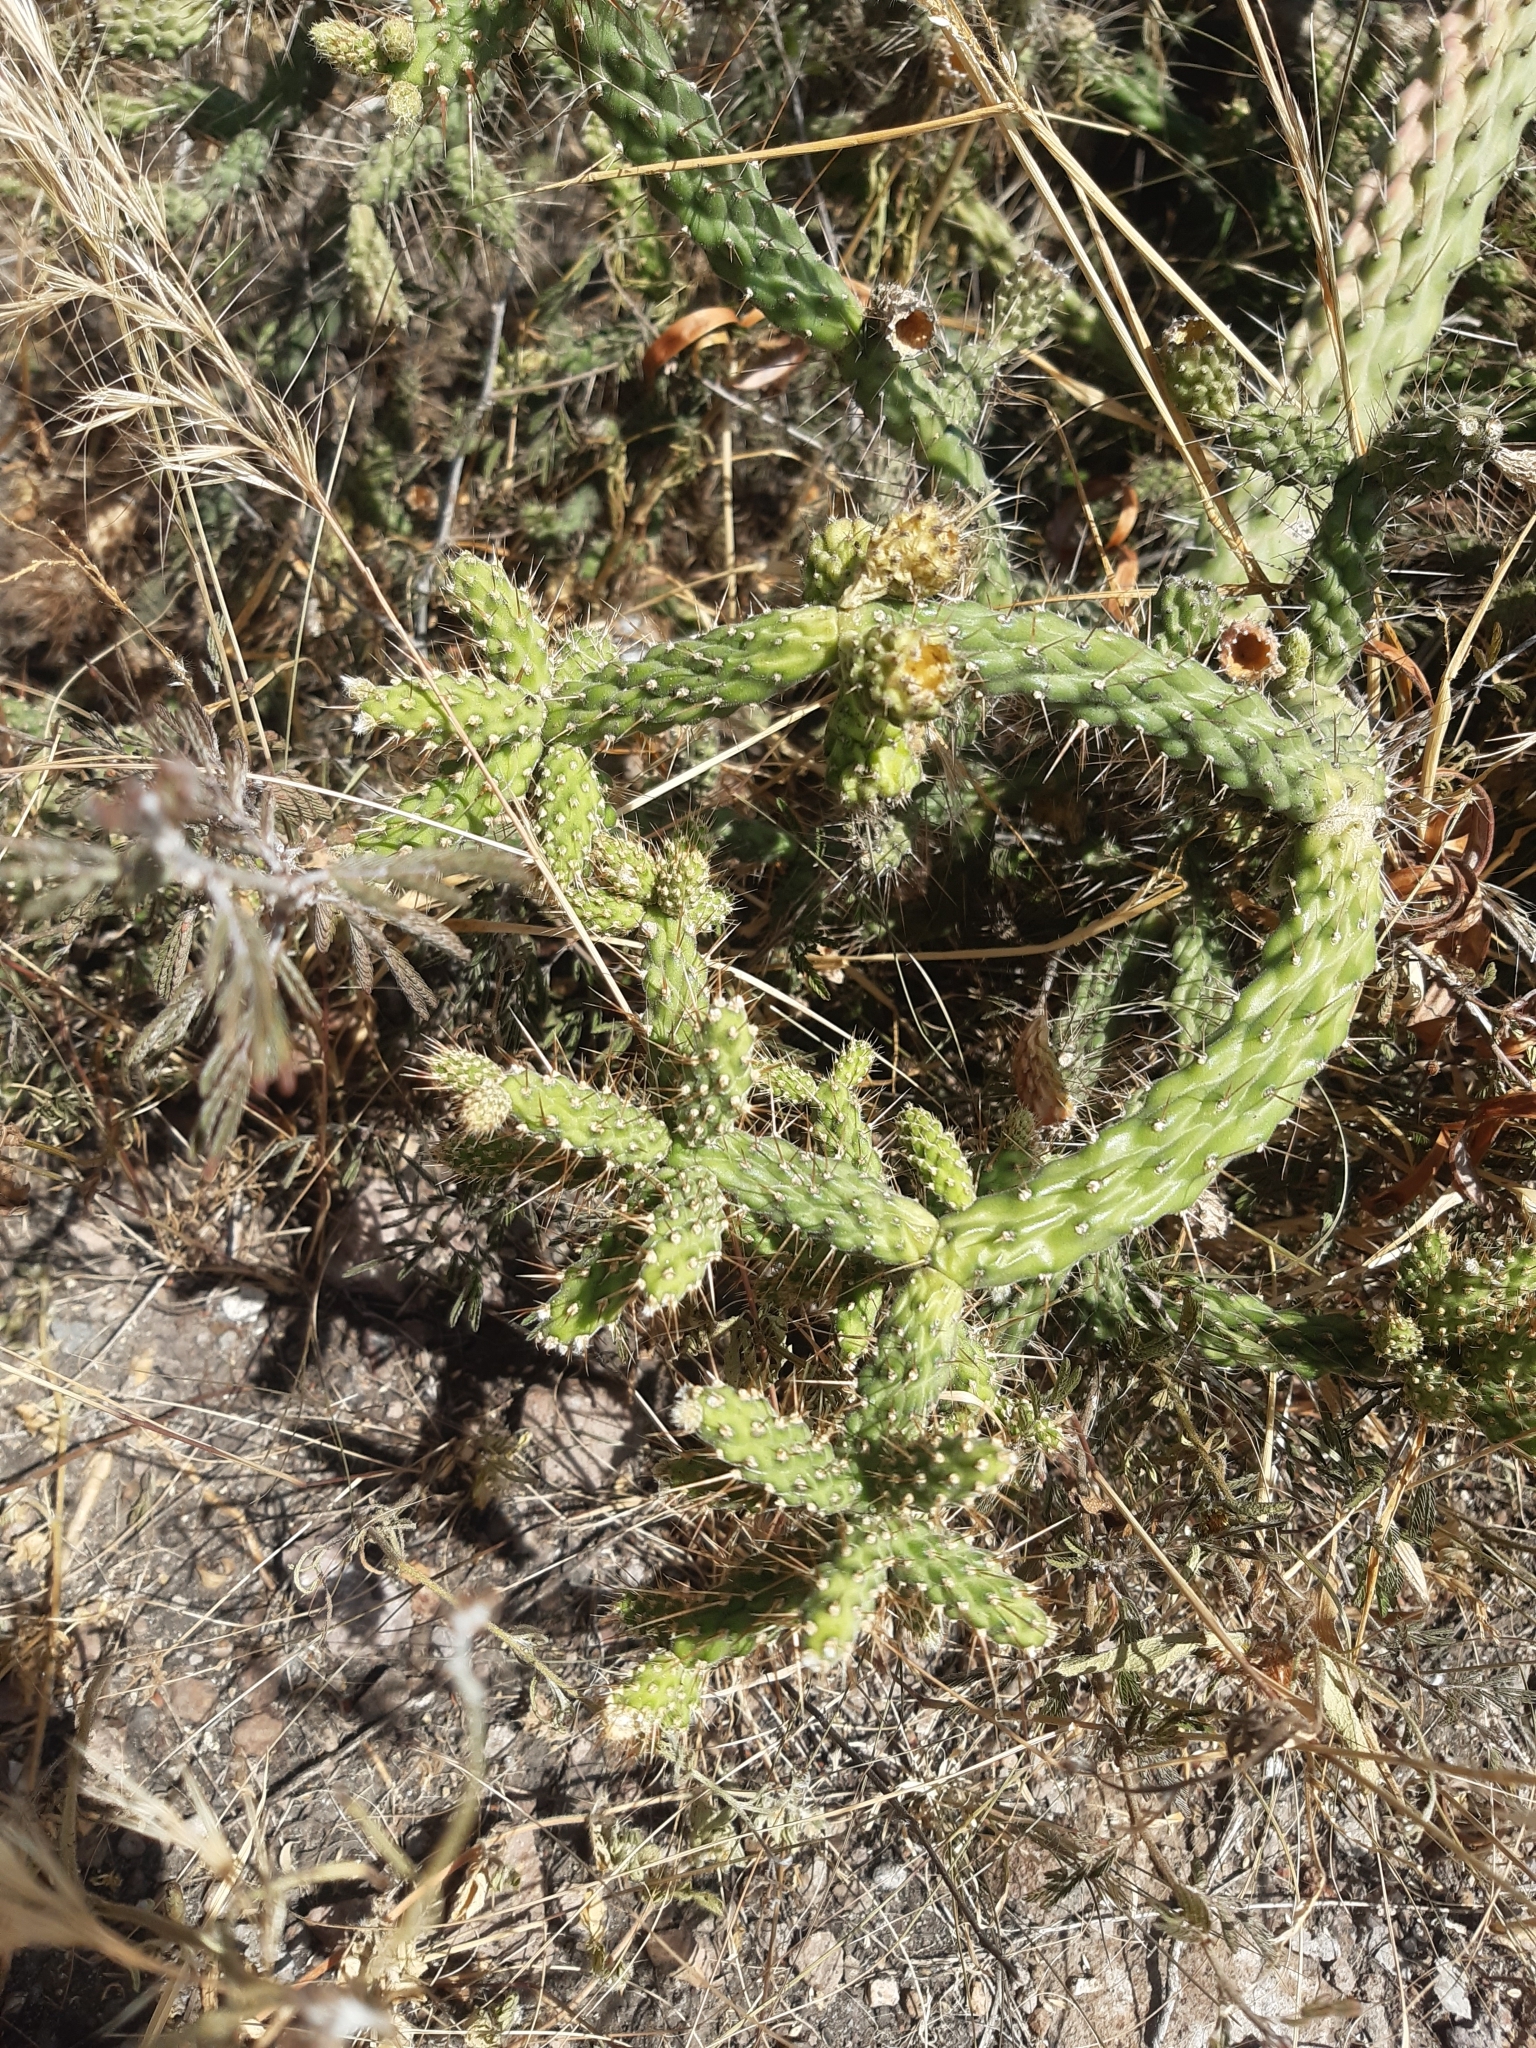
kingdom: Plantae
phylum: Tracheophyta
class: Magnoliopsida
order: Caryophyllales
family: Cactaceae
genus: Opuntia
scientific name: Opuntia pubescens
